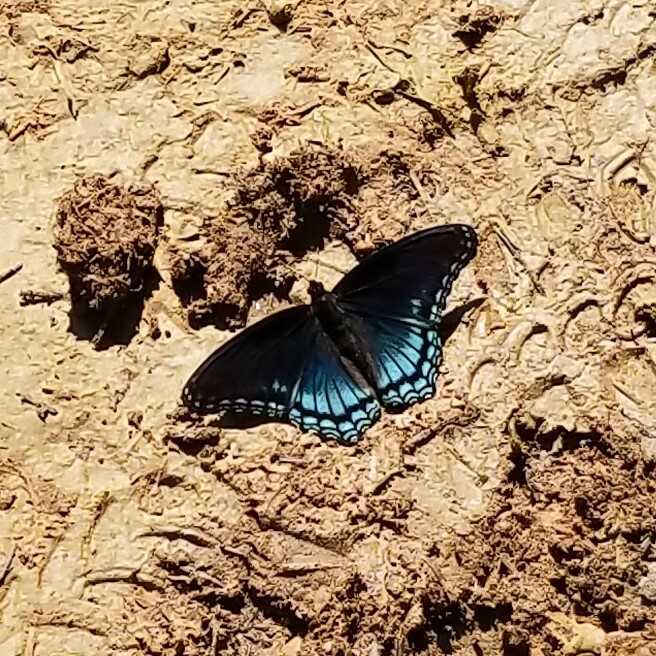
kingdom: Animalia
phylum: Arthropoda
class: Insecta
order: Lepidoptera
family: Nymphalidae
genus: Limenitis
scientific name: Limenitis astyanax
